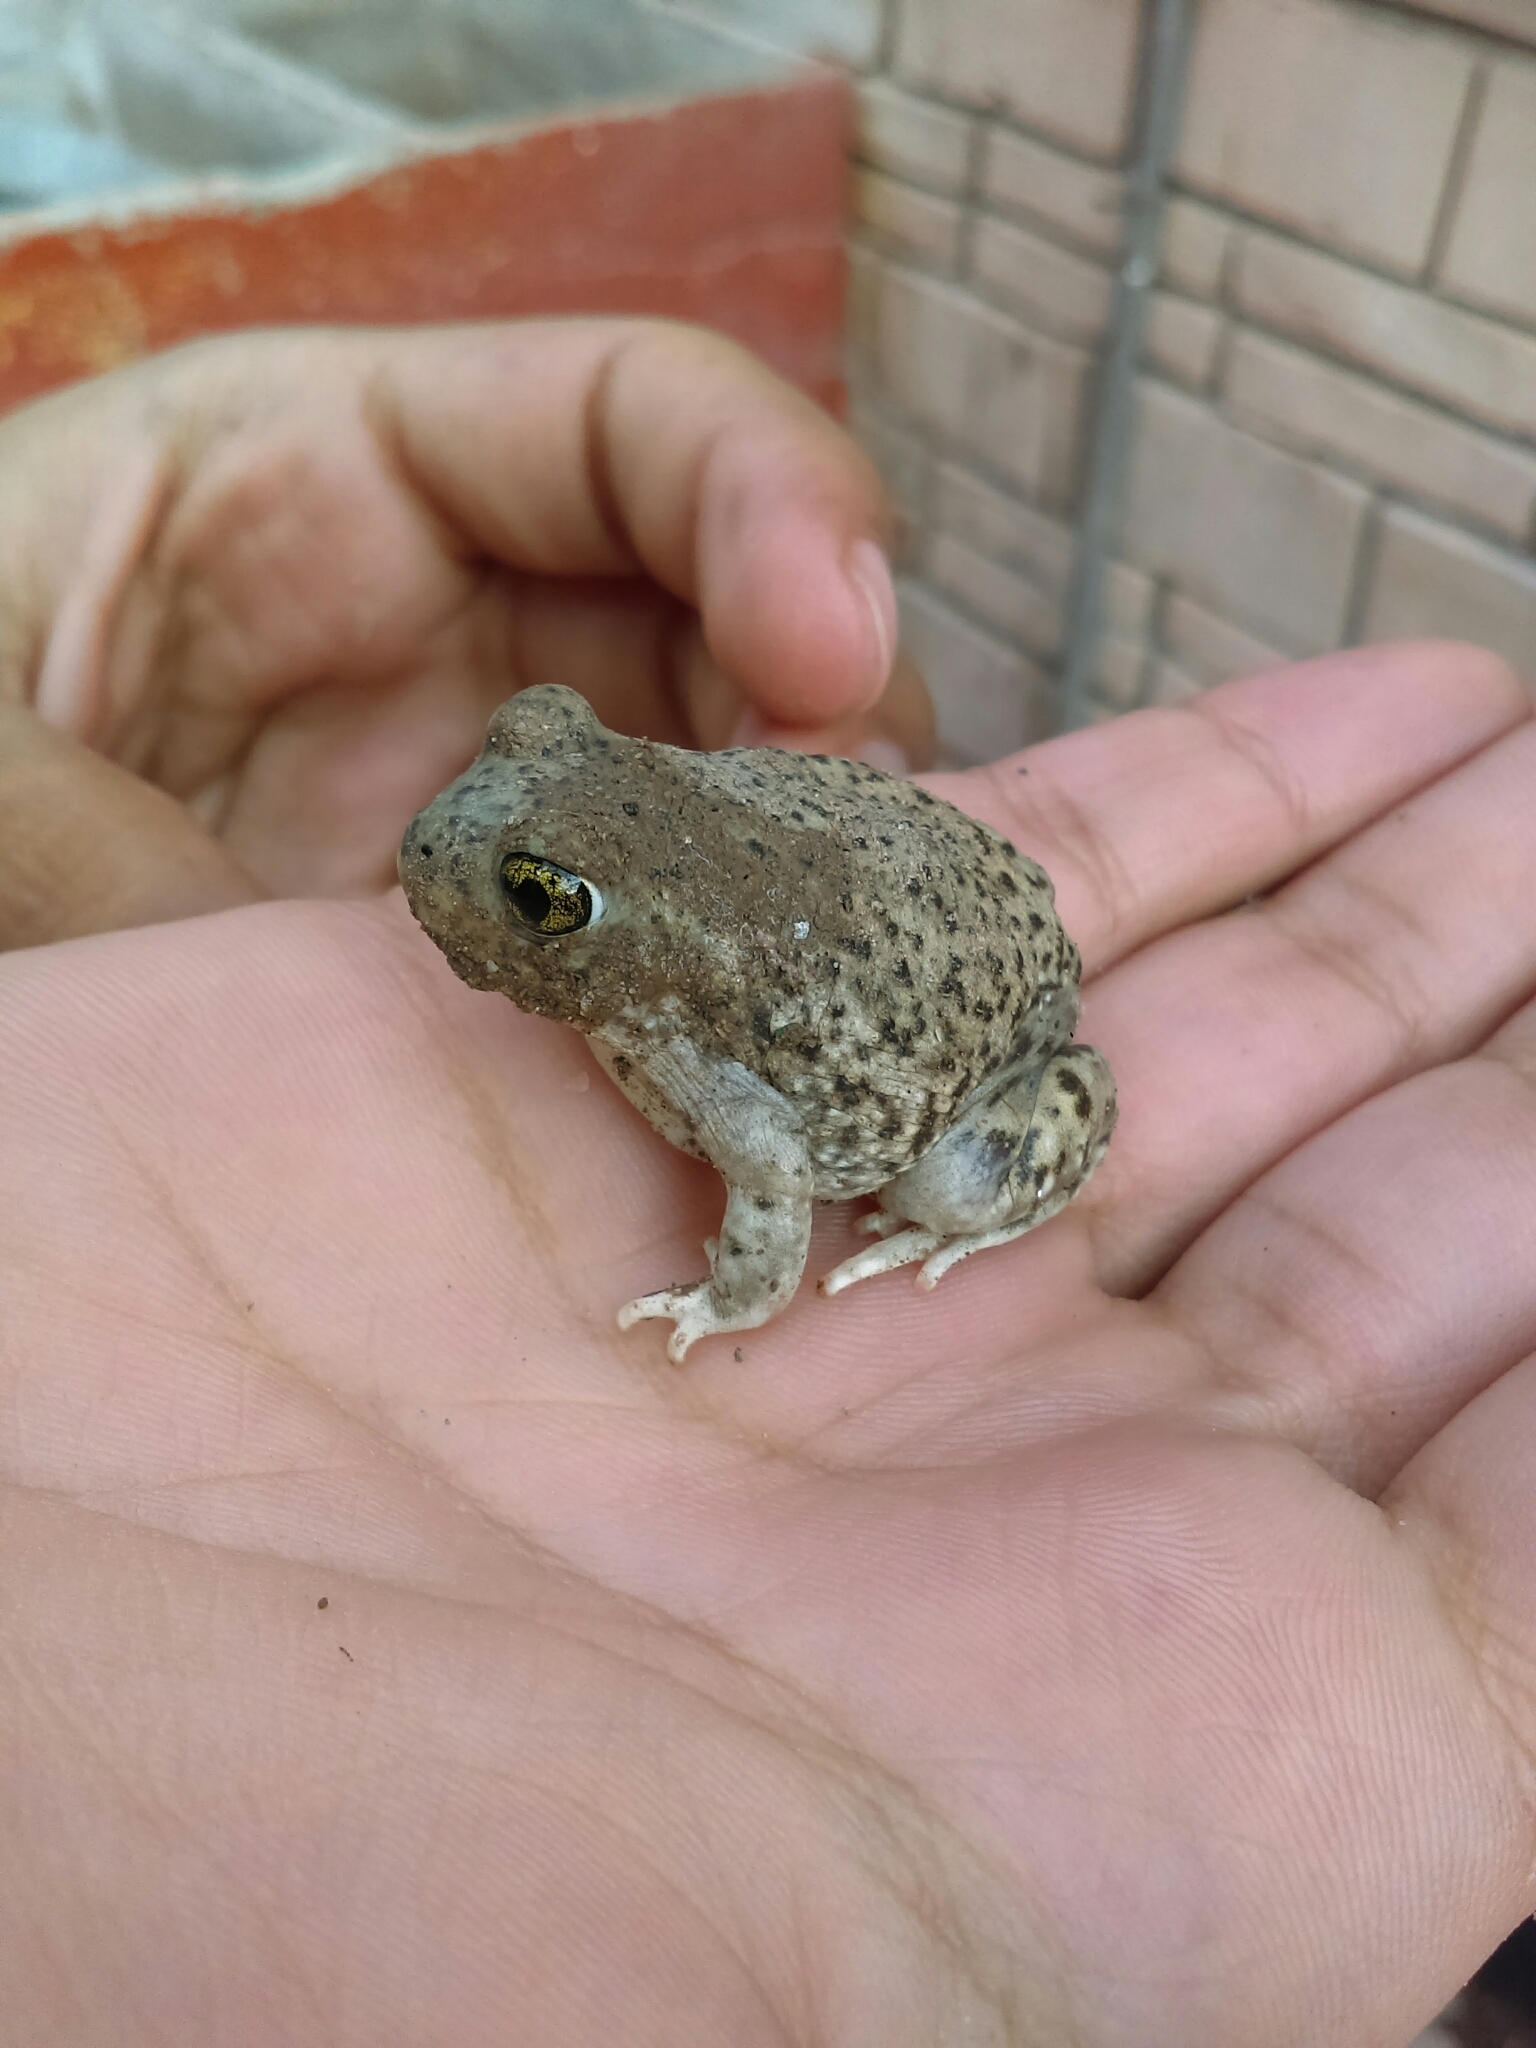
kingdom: Animalia
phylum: Chordata
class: Amphibia
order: Anura
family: Scaphiopodidae
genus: Spea
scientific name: Spea multiplicata
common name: Mexican spadefoot
